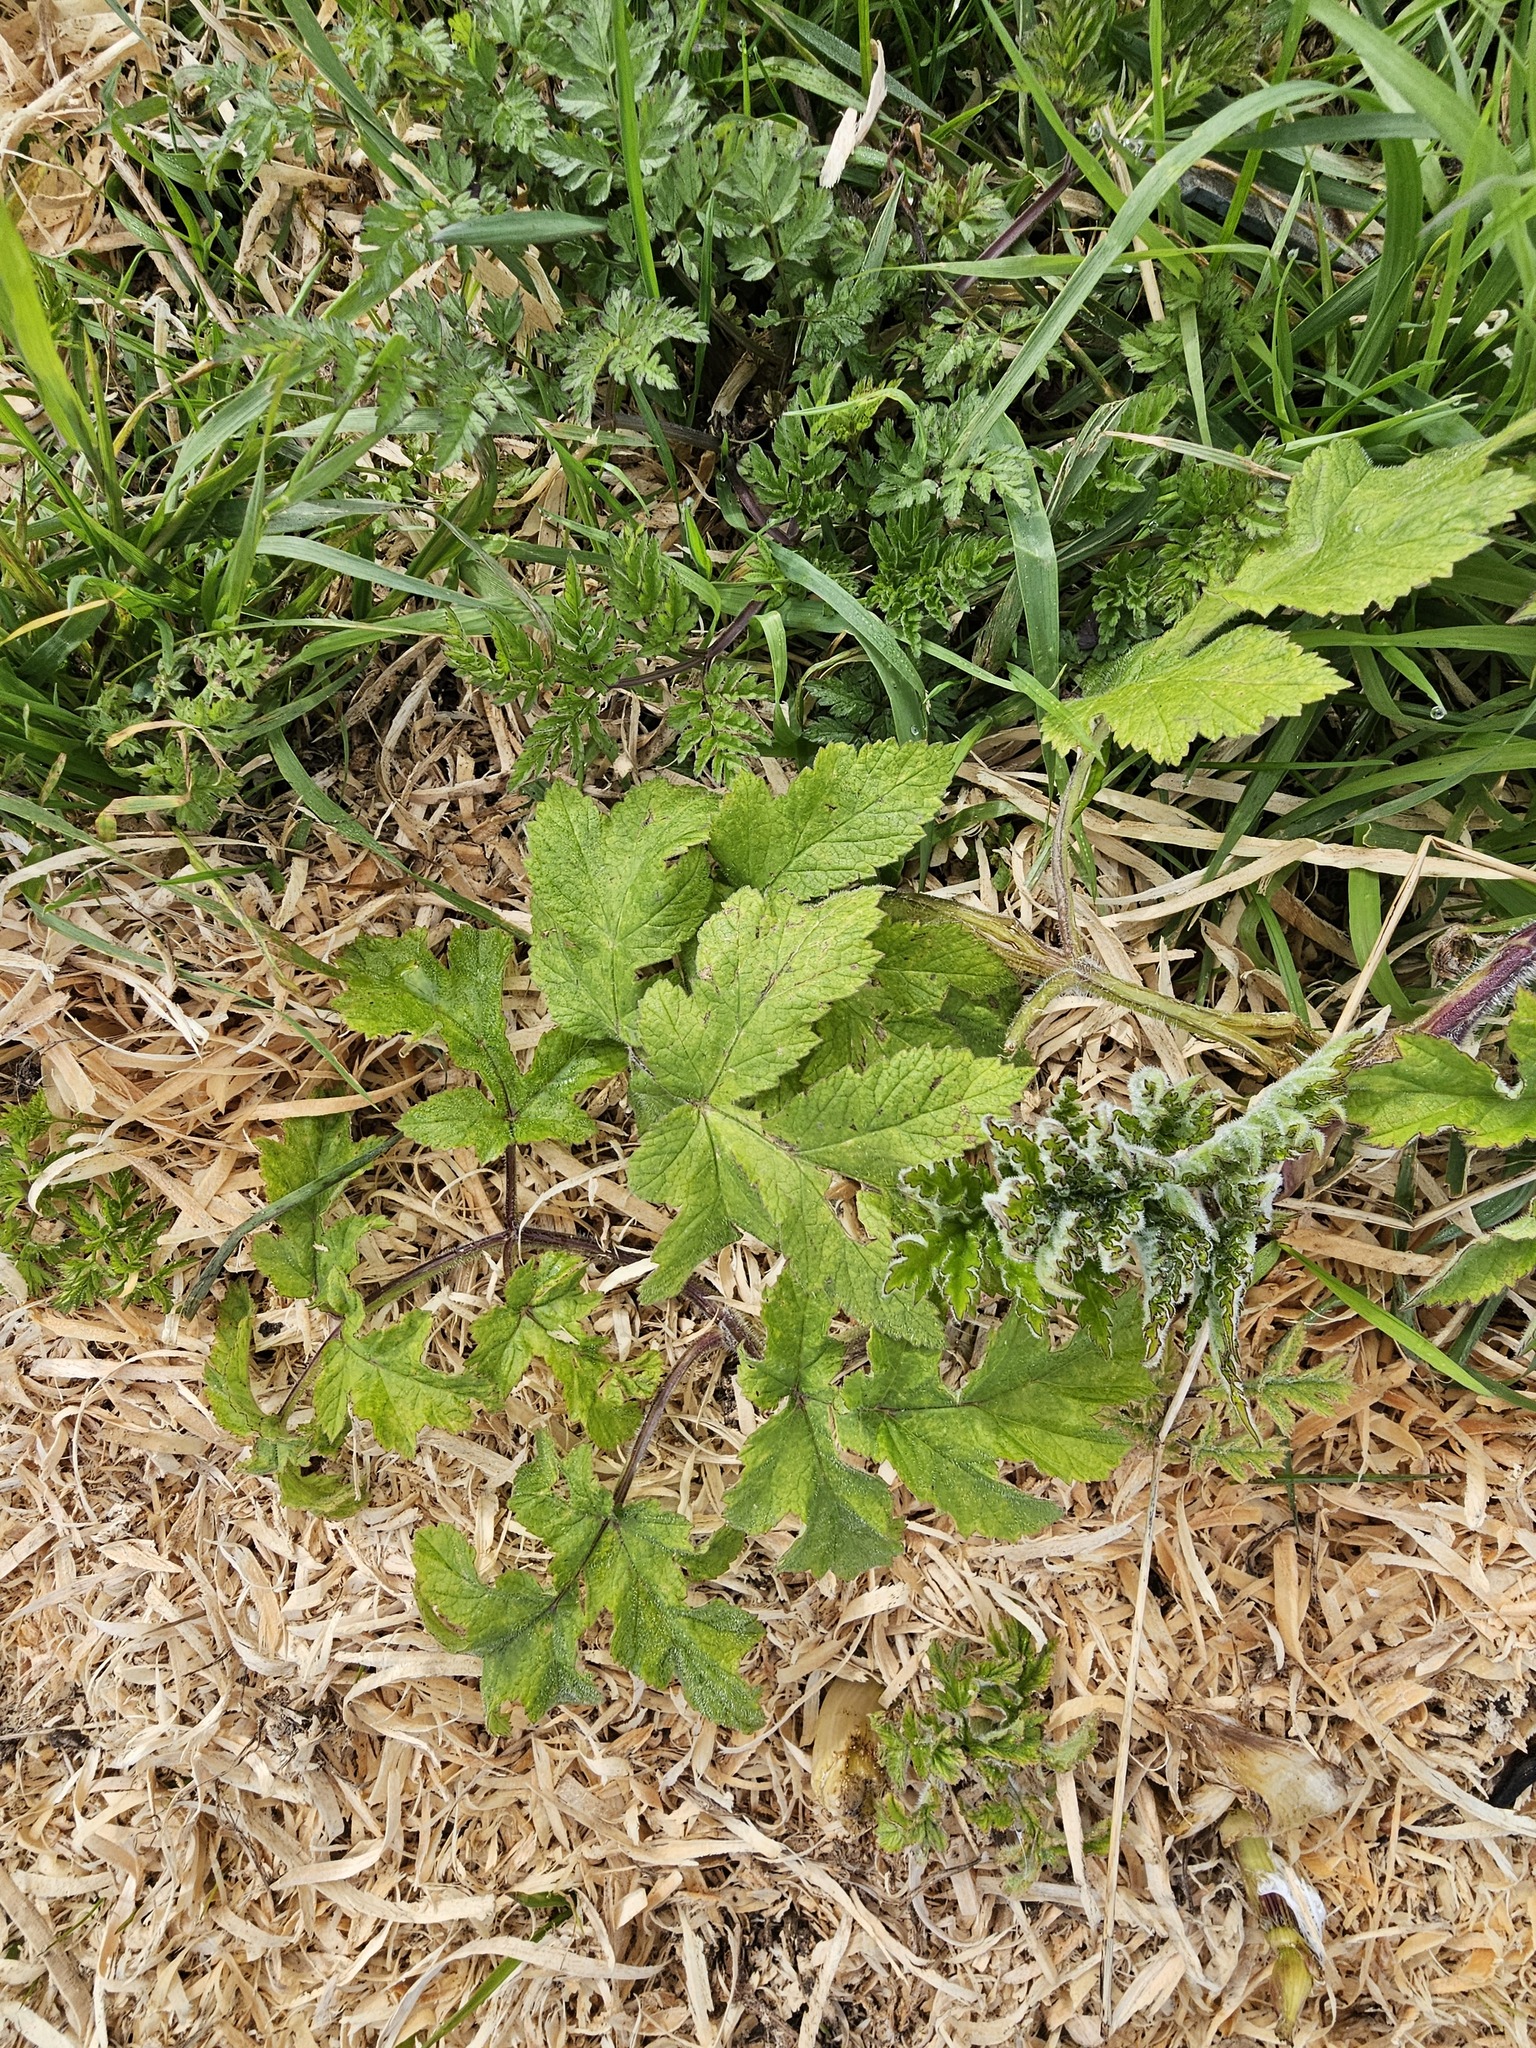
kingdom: Plantae
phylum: Tracheophyta
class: Magnoliopsida
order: Apiales
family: Apiaceae
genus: Heracleum
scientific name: Heracleum sphondylium
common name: Hogweed
